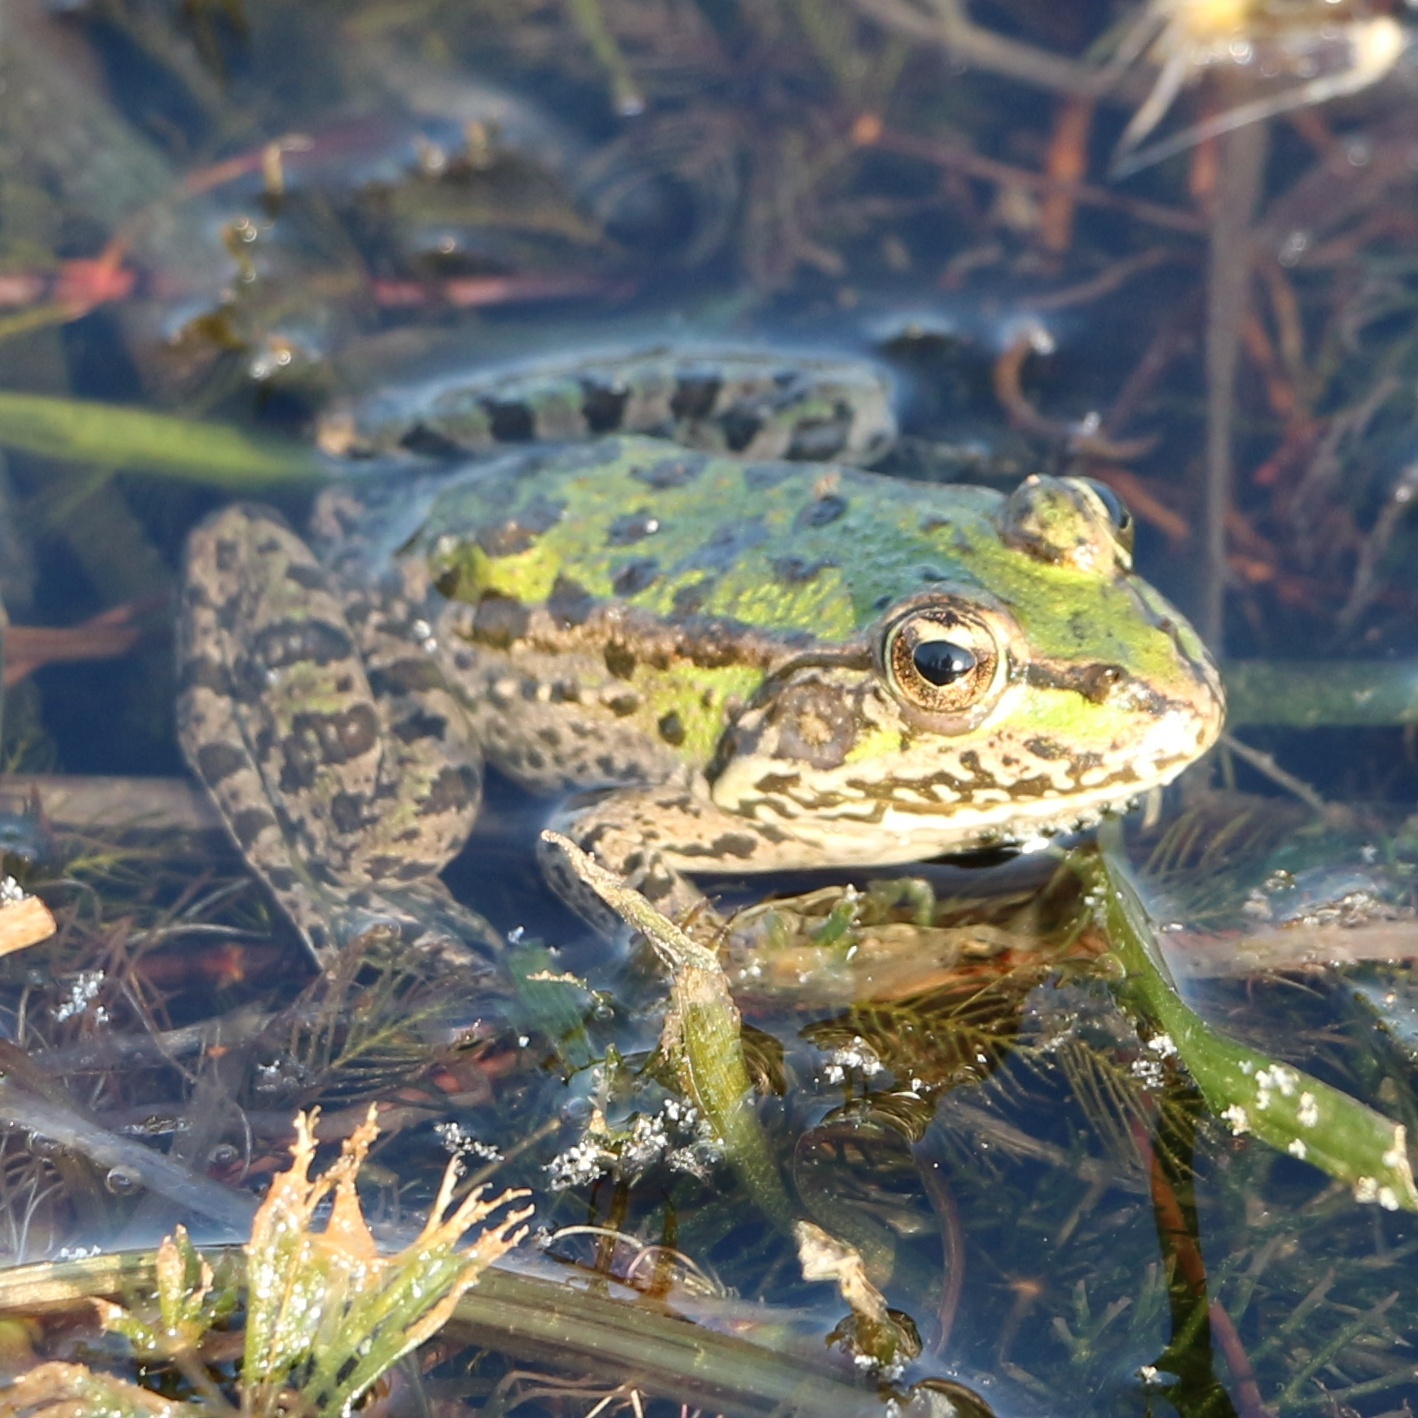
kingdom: Animalia
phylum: Chordata
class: Amphibia
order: Anura
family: Ranidae
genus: Pelophylax
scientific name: Pelophylax ridibundus
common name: Marsh frog
